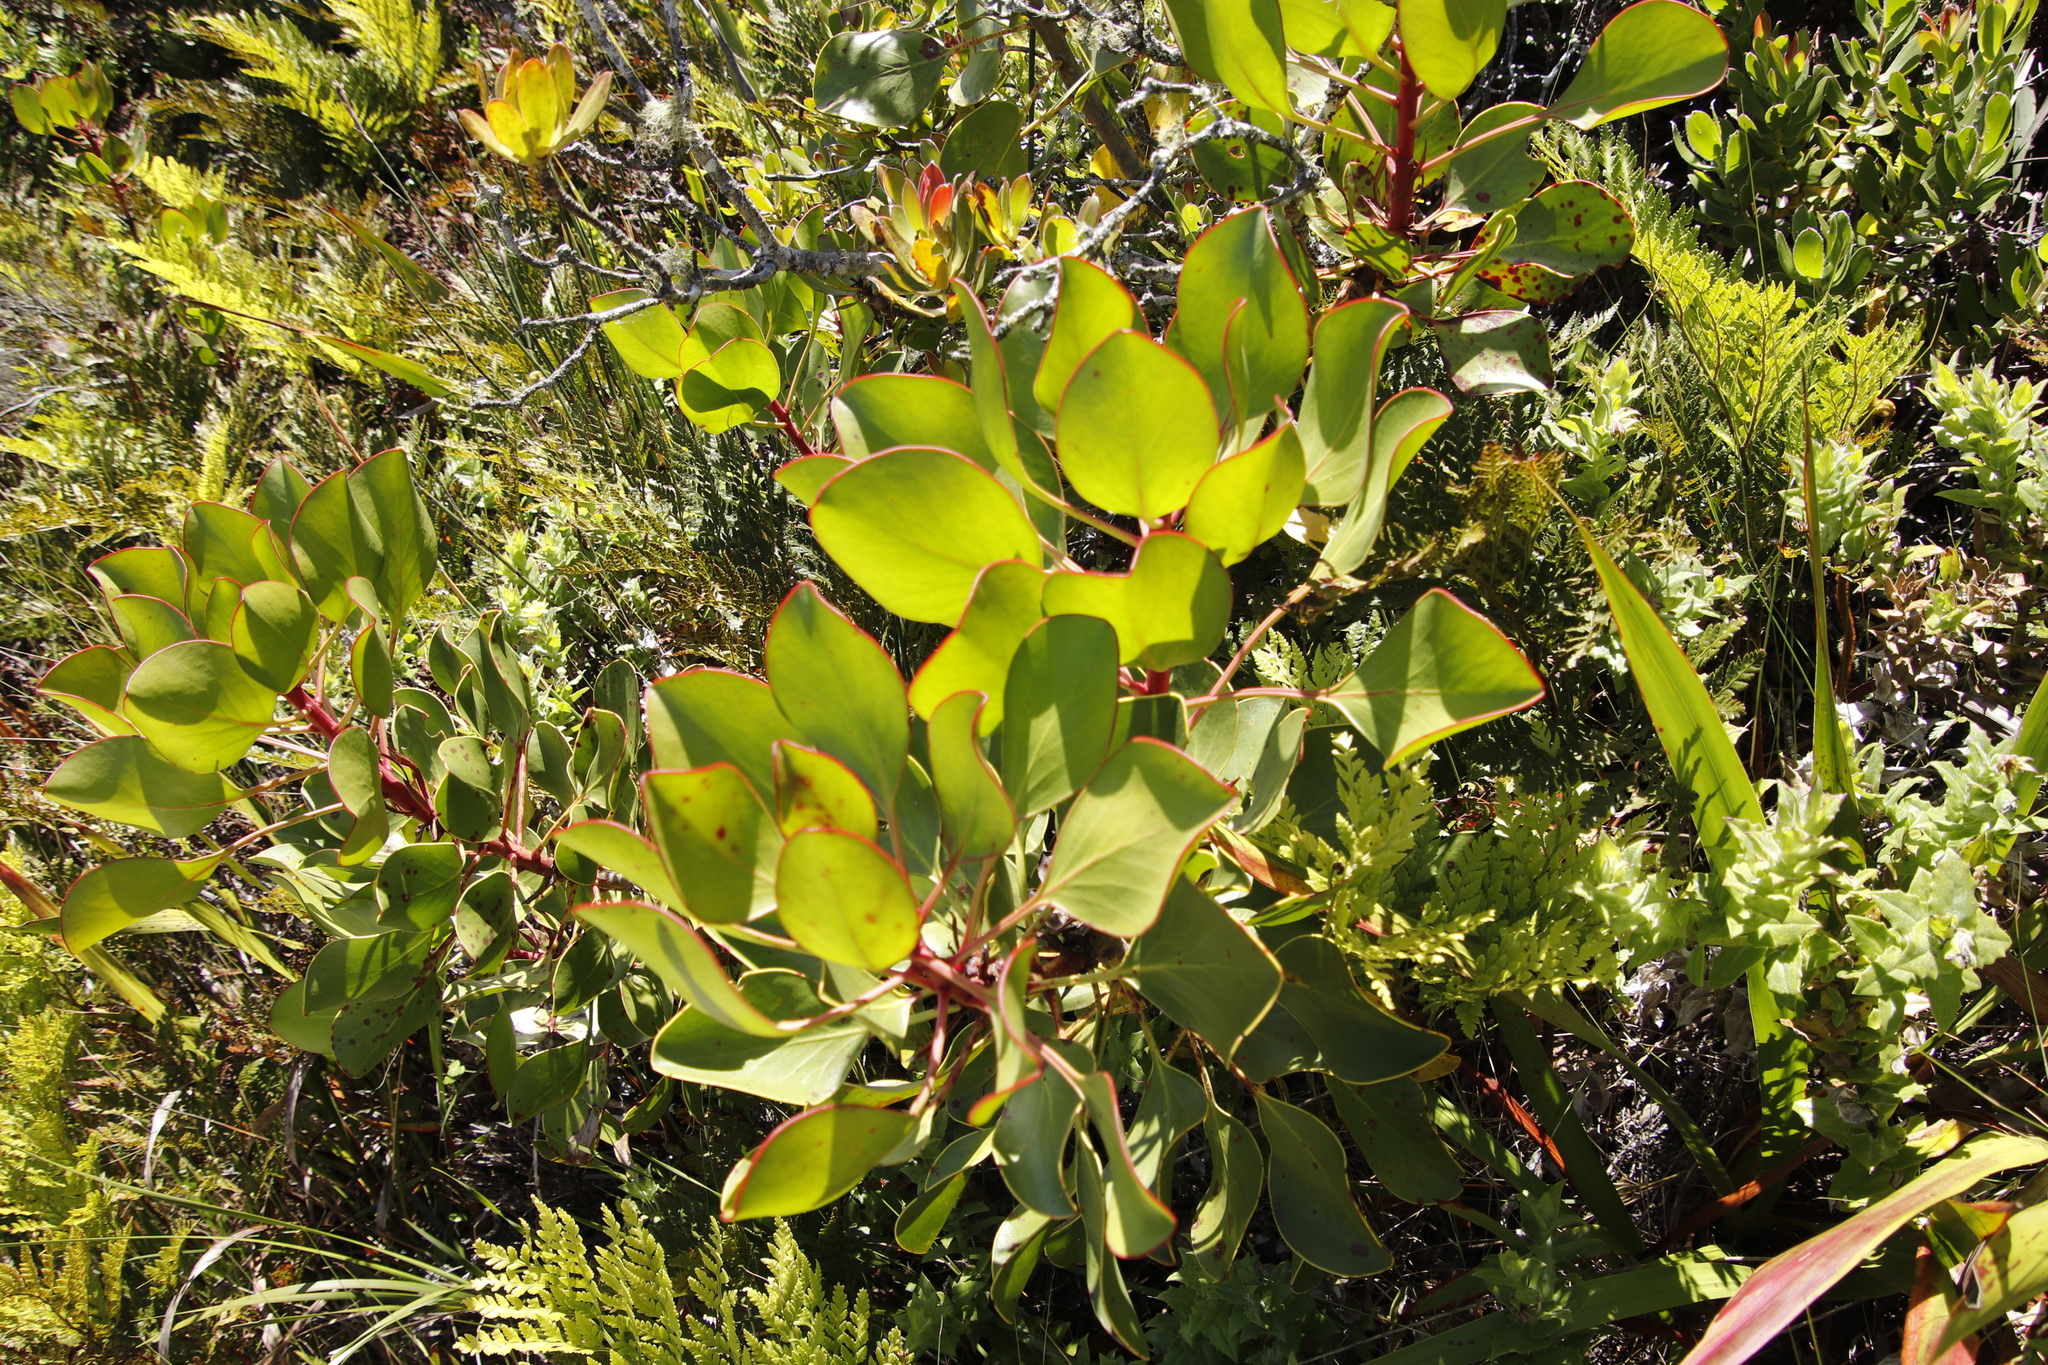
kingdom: Plantae
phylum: Tracheophyta
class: Magnoliopsida
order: Proteales
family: Proteaceae
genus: Protea
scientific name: Protea cynaroides
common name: King protea
